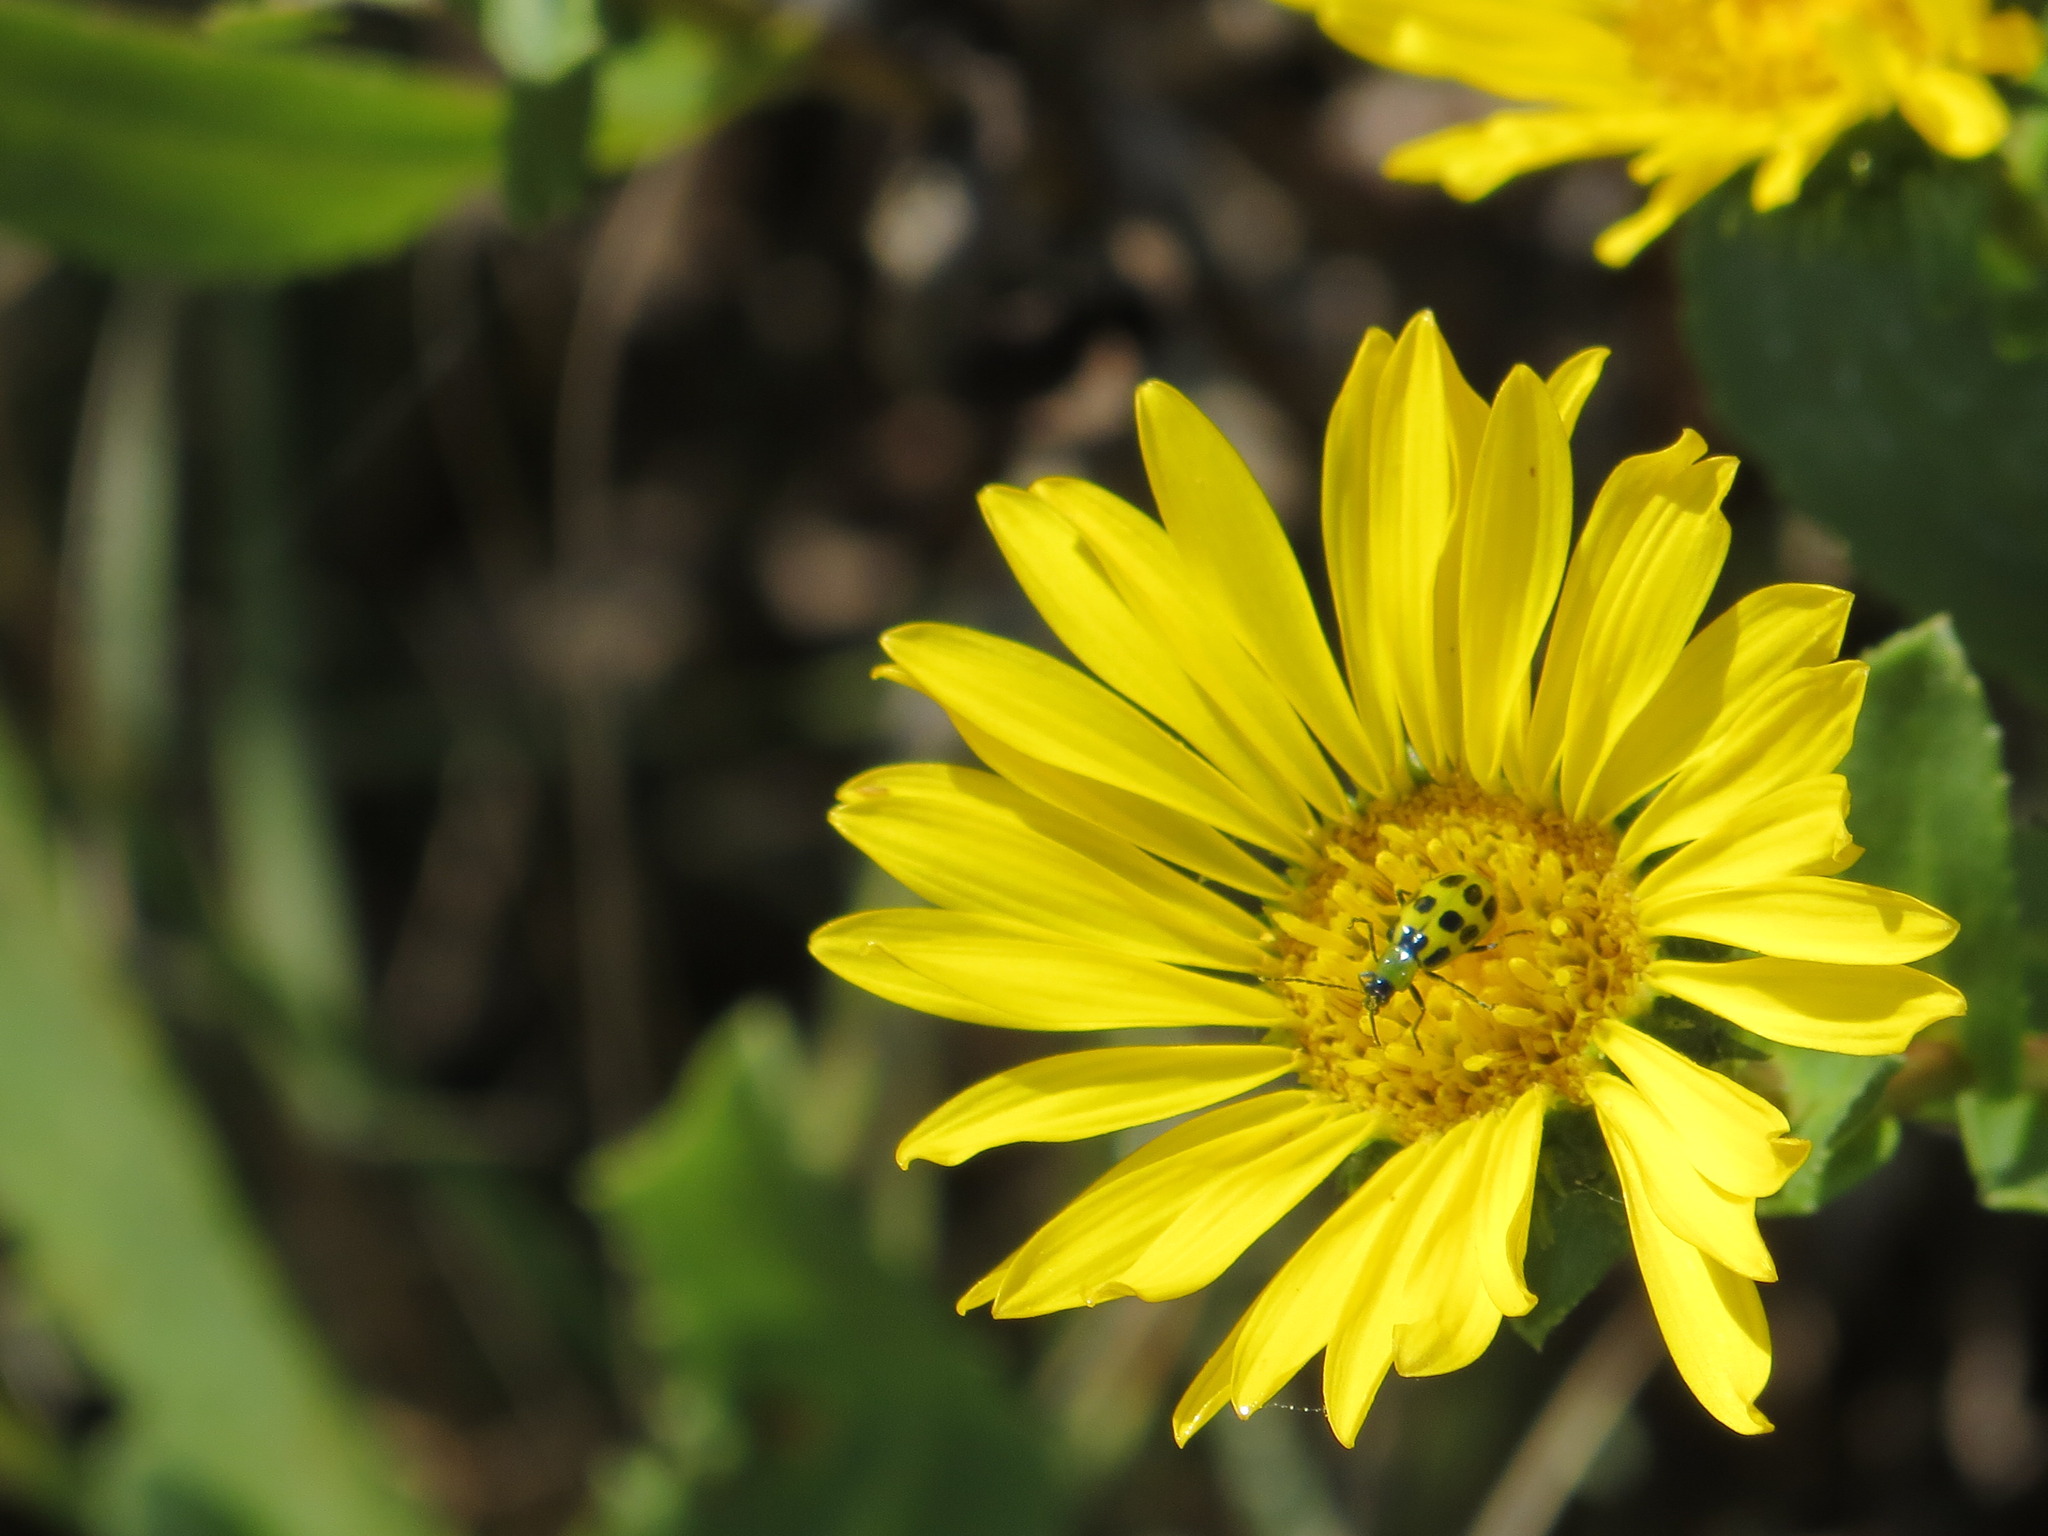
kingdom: Animalia
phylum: Arthropoda
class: Insecta
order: Coleoptera
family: Chrysomelidae
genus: Diabrotica
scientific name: Diabrotica undecimpunctata
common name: Spotted cucumber beetle
